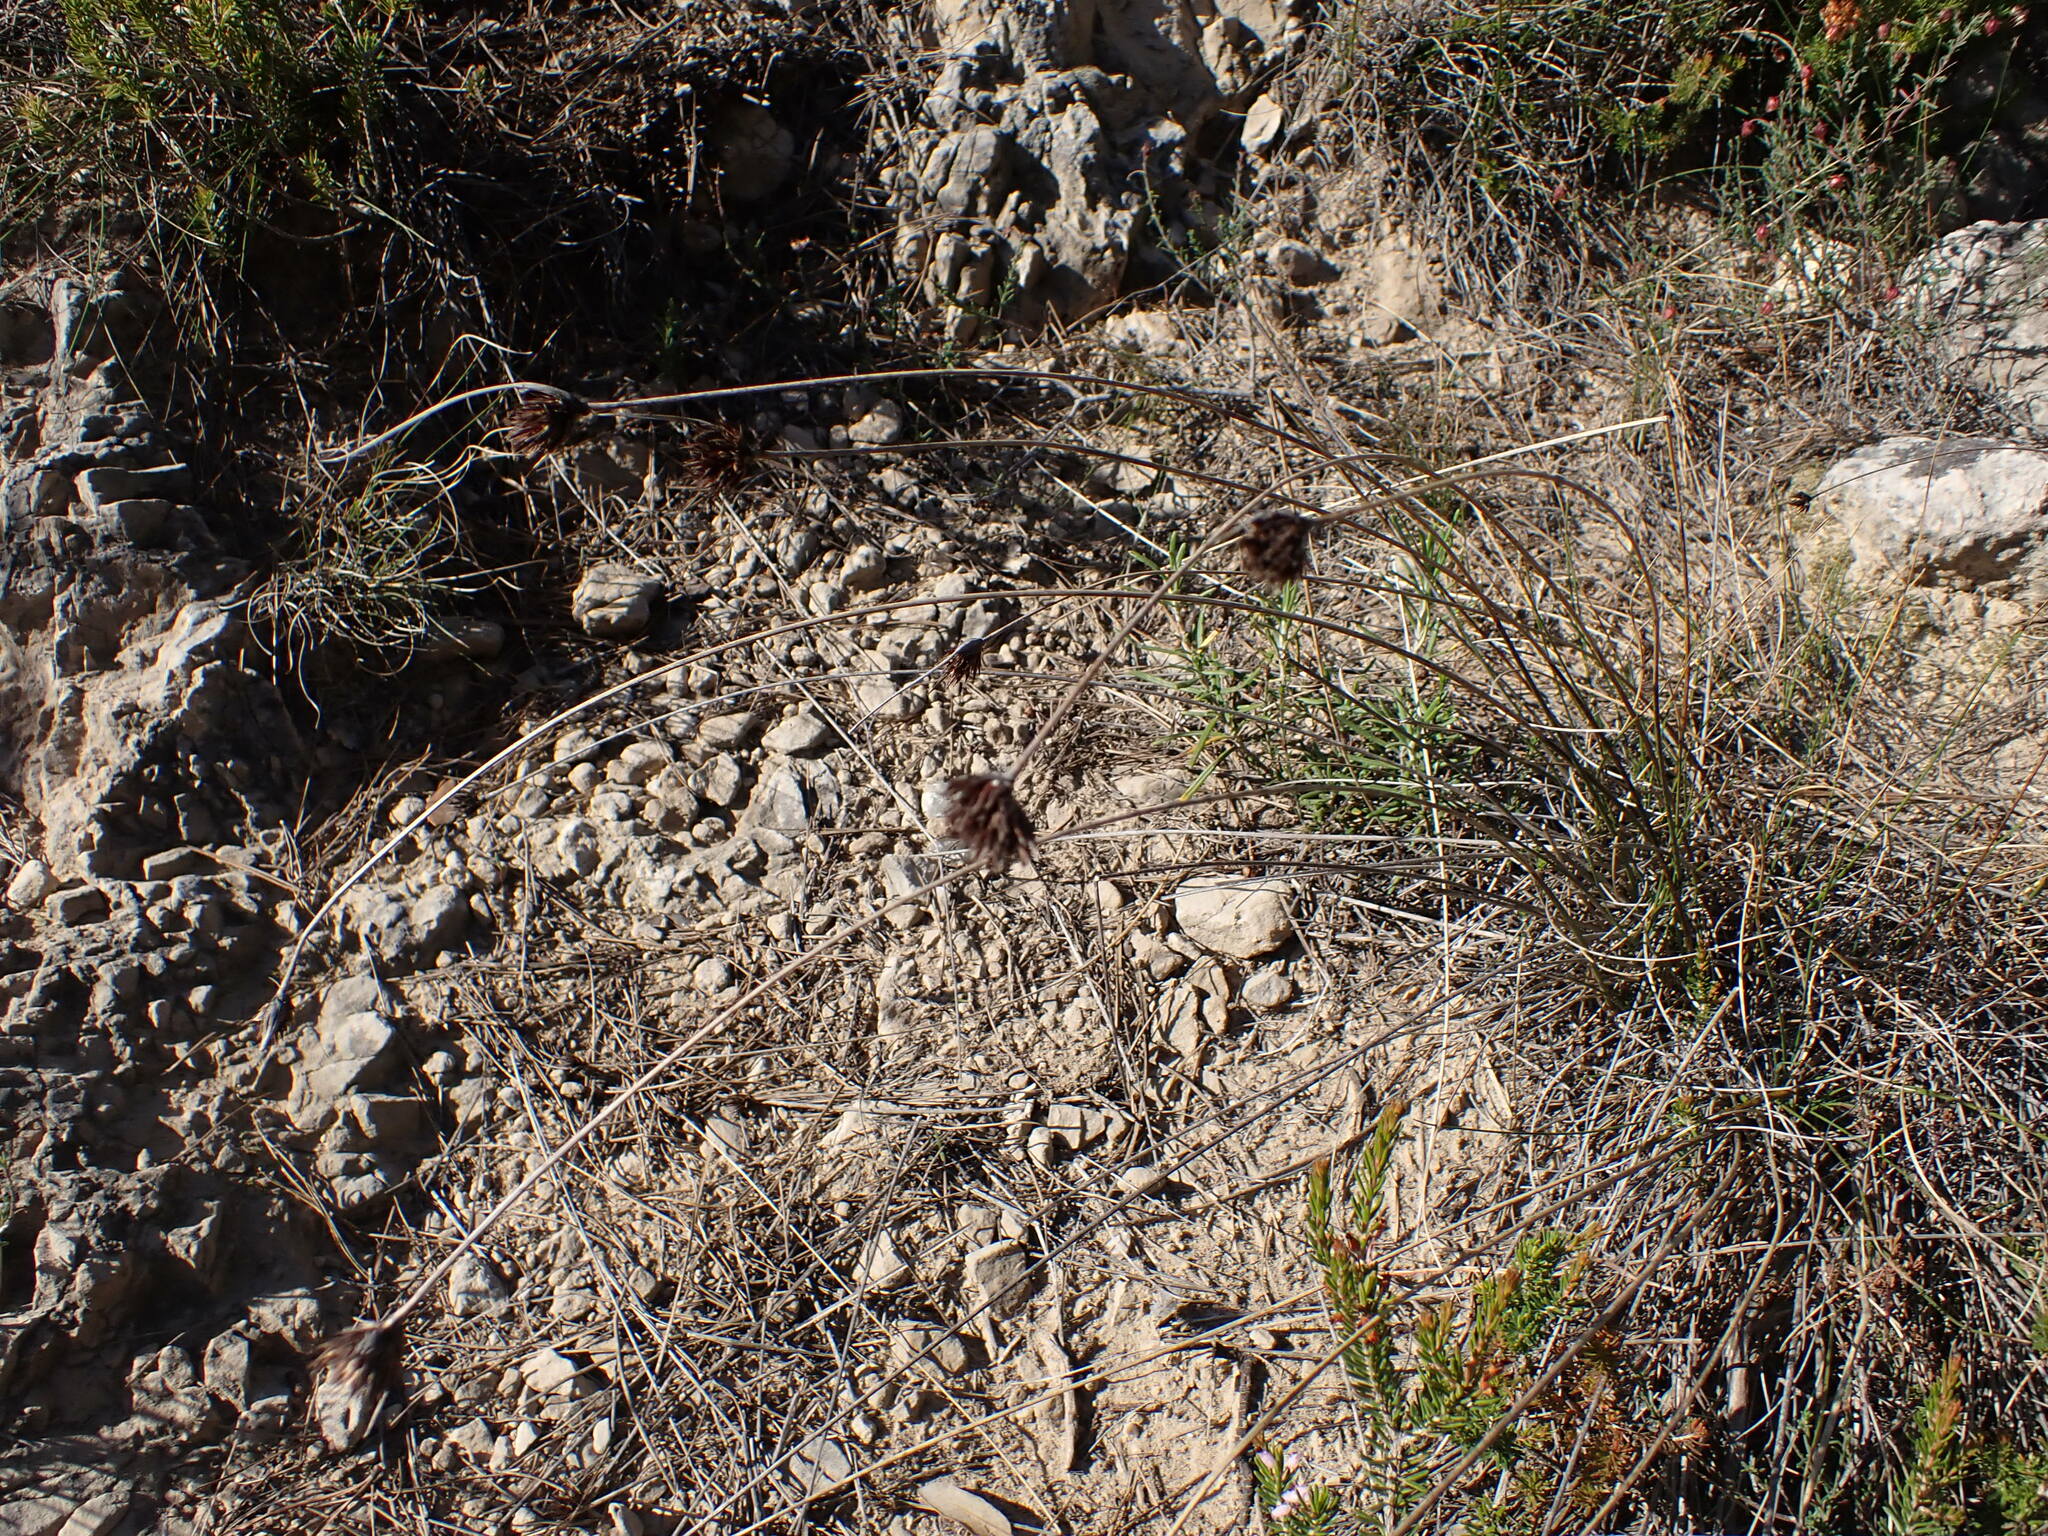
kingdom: Plantae
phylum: Tracheophyta
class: Liliopsida
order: Poales
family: Cyperaceae
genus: Schoenus
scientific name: Schoenus nigricans
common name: Black bog-rush
